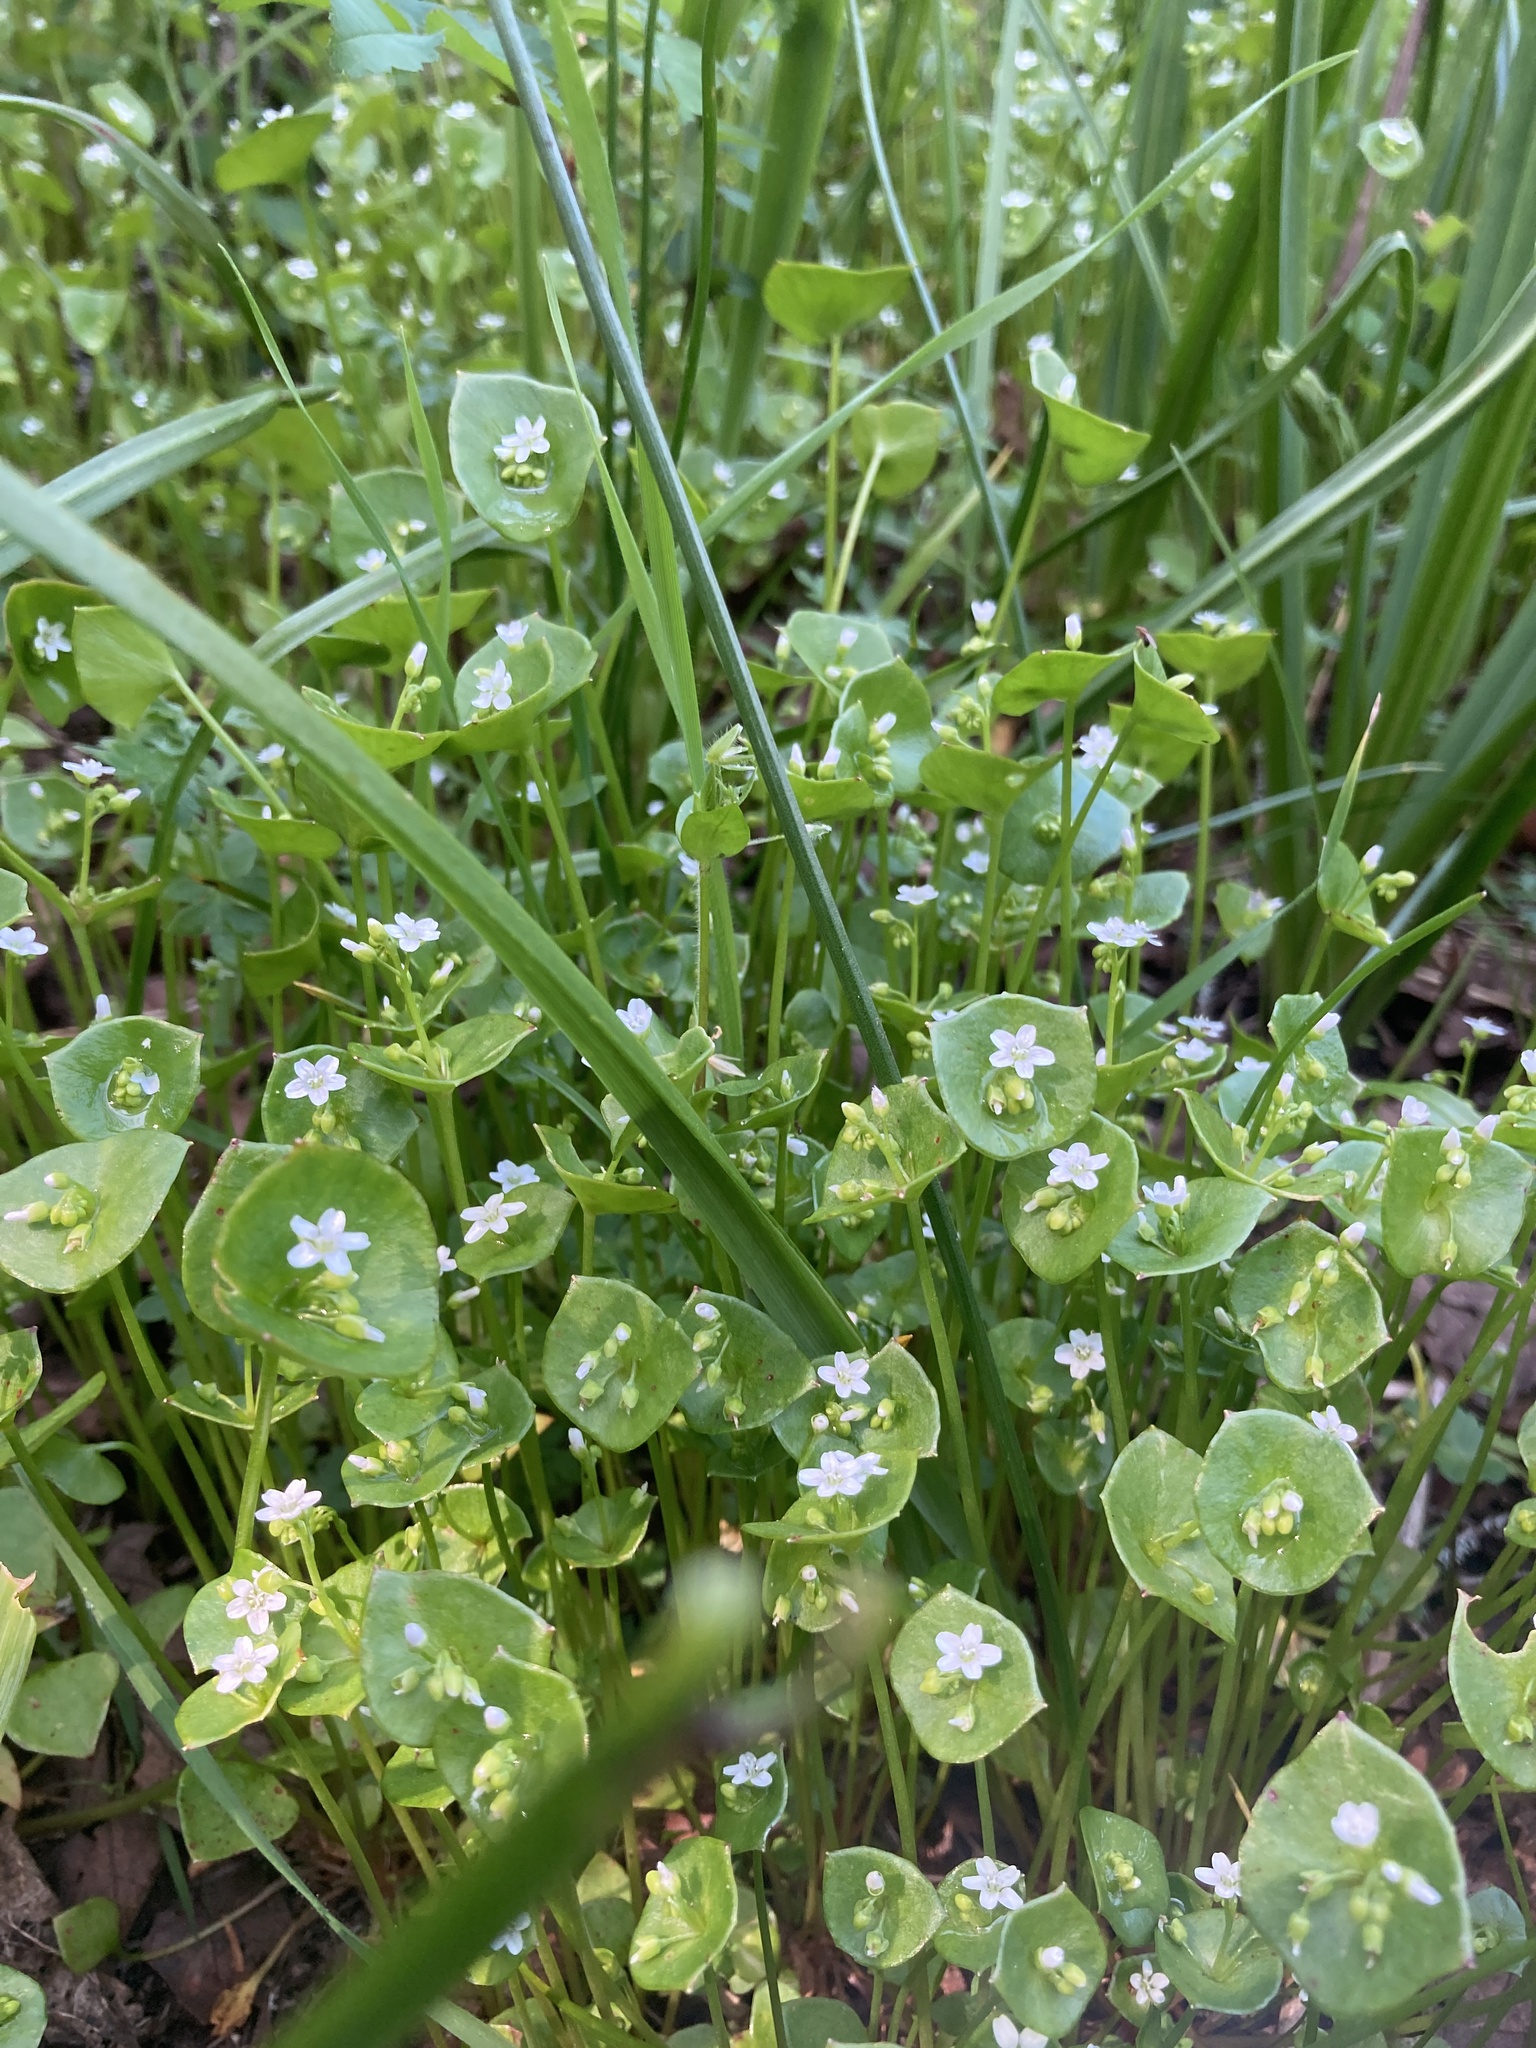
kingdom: Plantae
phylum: Tracheophyta
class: Magnoliopsida
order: Caryophyllales
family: Montiaceae
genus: Claytonia
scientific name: Claytonia perfoliata
